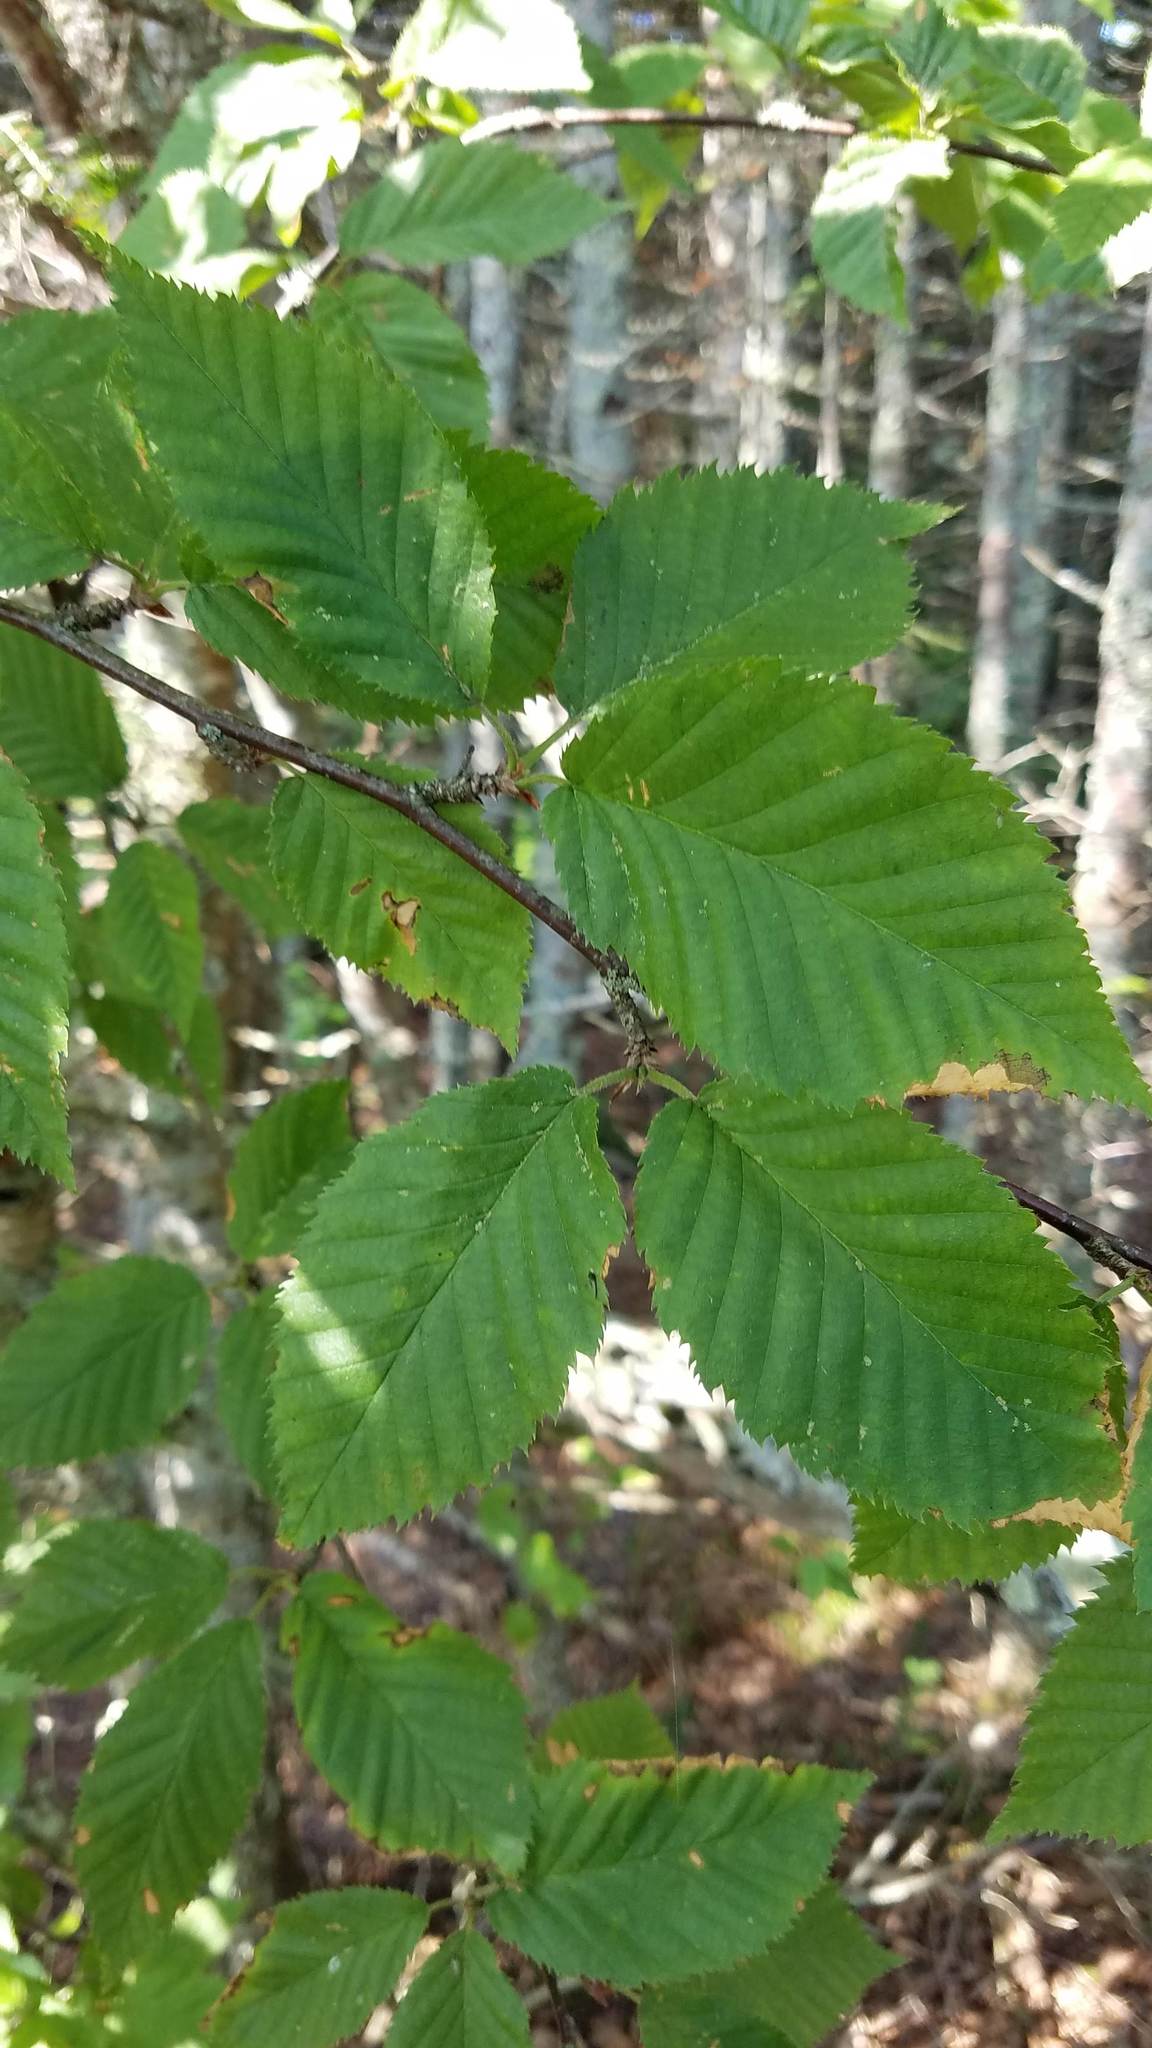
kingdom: Plantae
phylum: Tracheophyta
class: Magnoliopsida
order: Fagales
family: Betulaceae
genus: Betula
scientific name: Betula alleghaniensis
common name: Yellow birch
